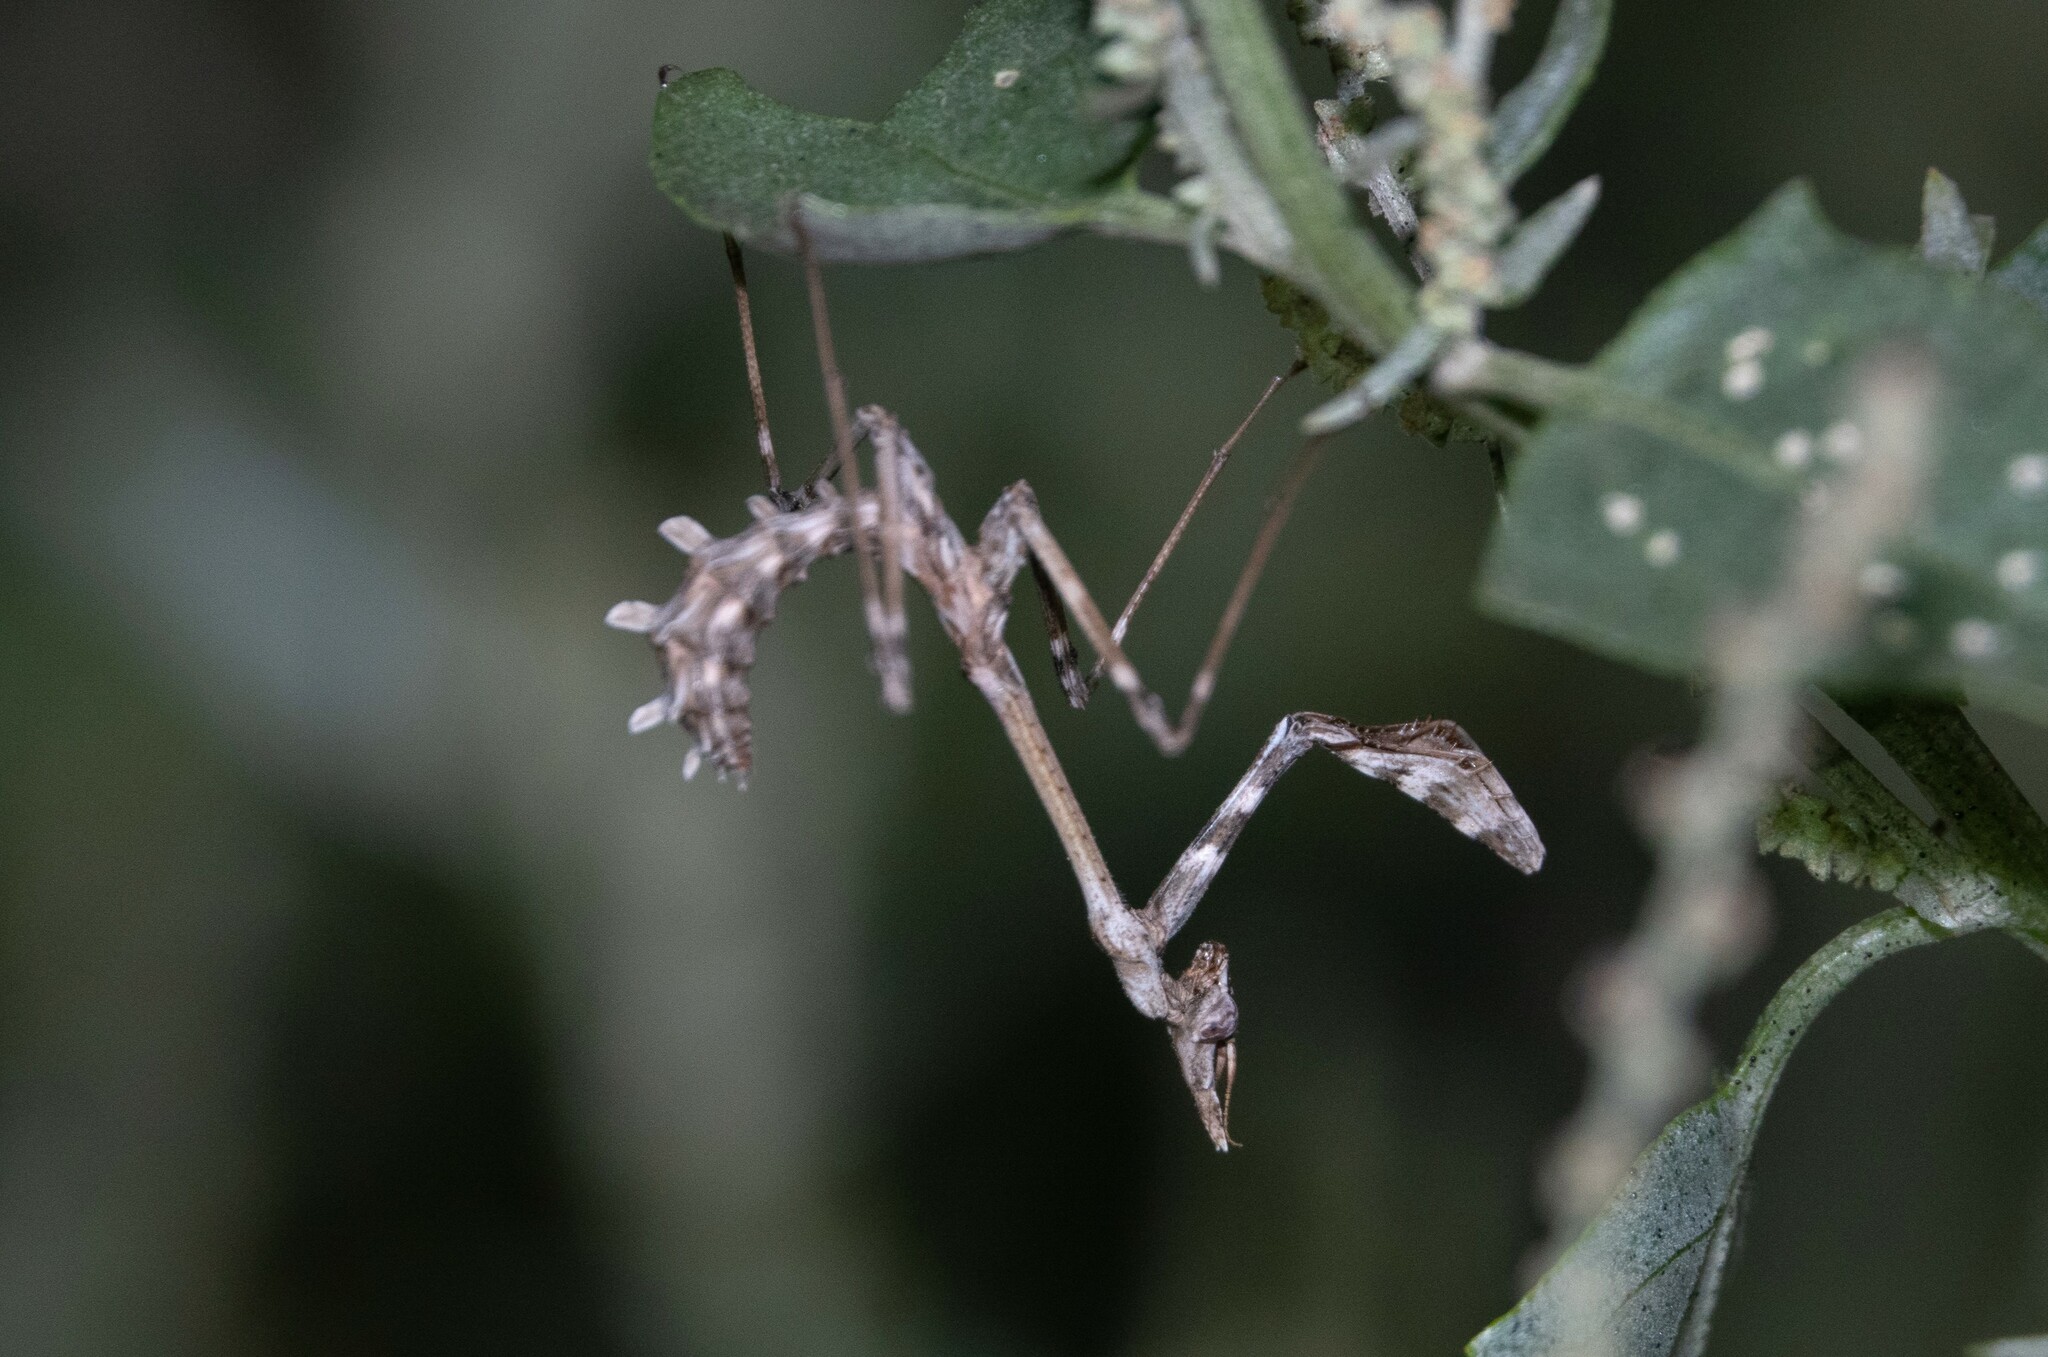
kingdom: Animalia
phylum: Arthropoda
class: Insecta
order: Mantodea
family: Empusidae
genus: Empusa
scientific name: Empusa fasciata
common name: Devil's mare
